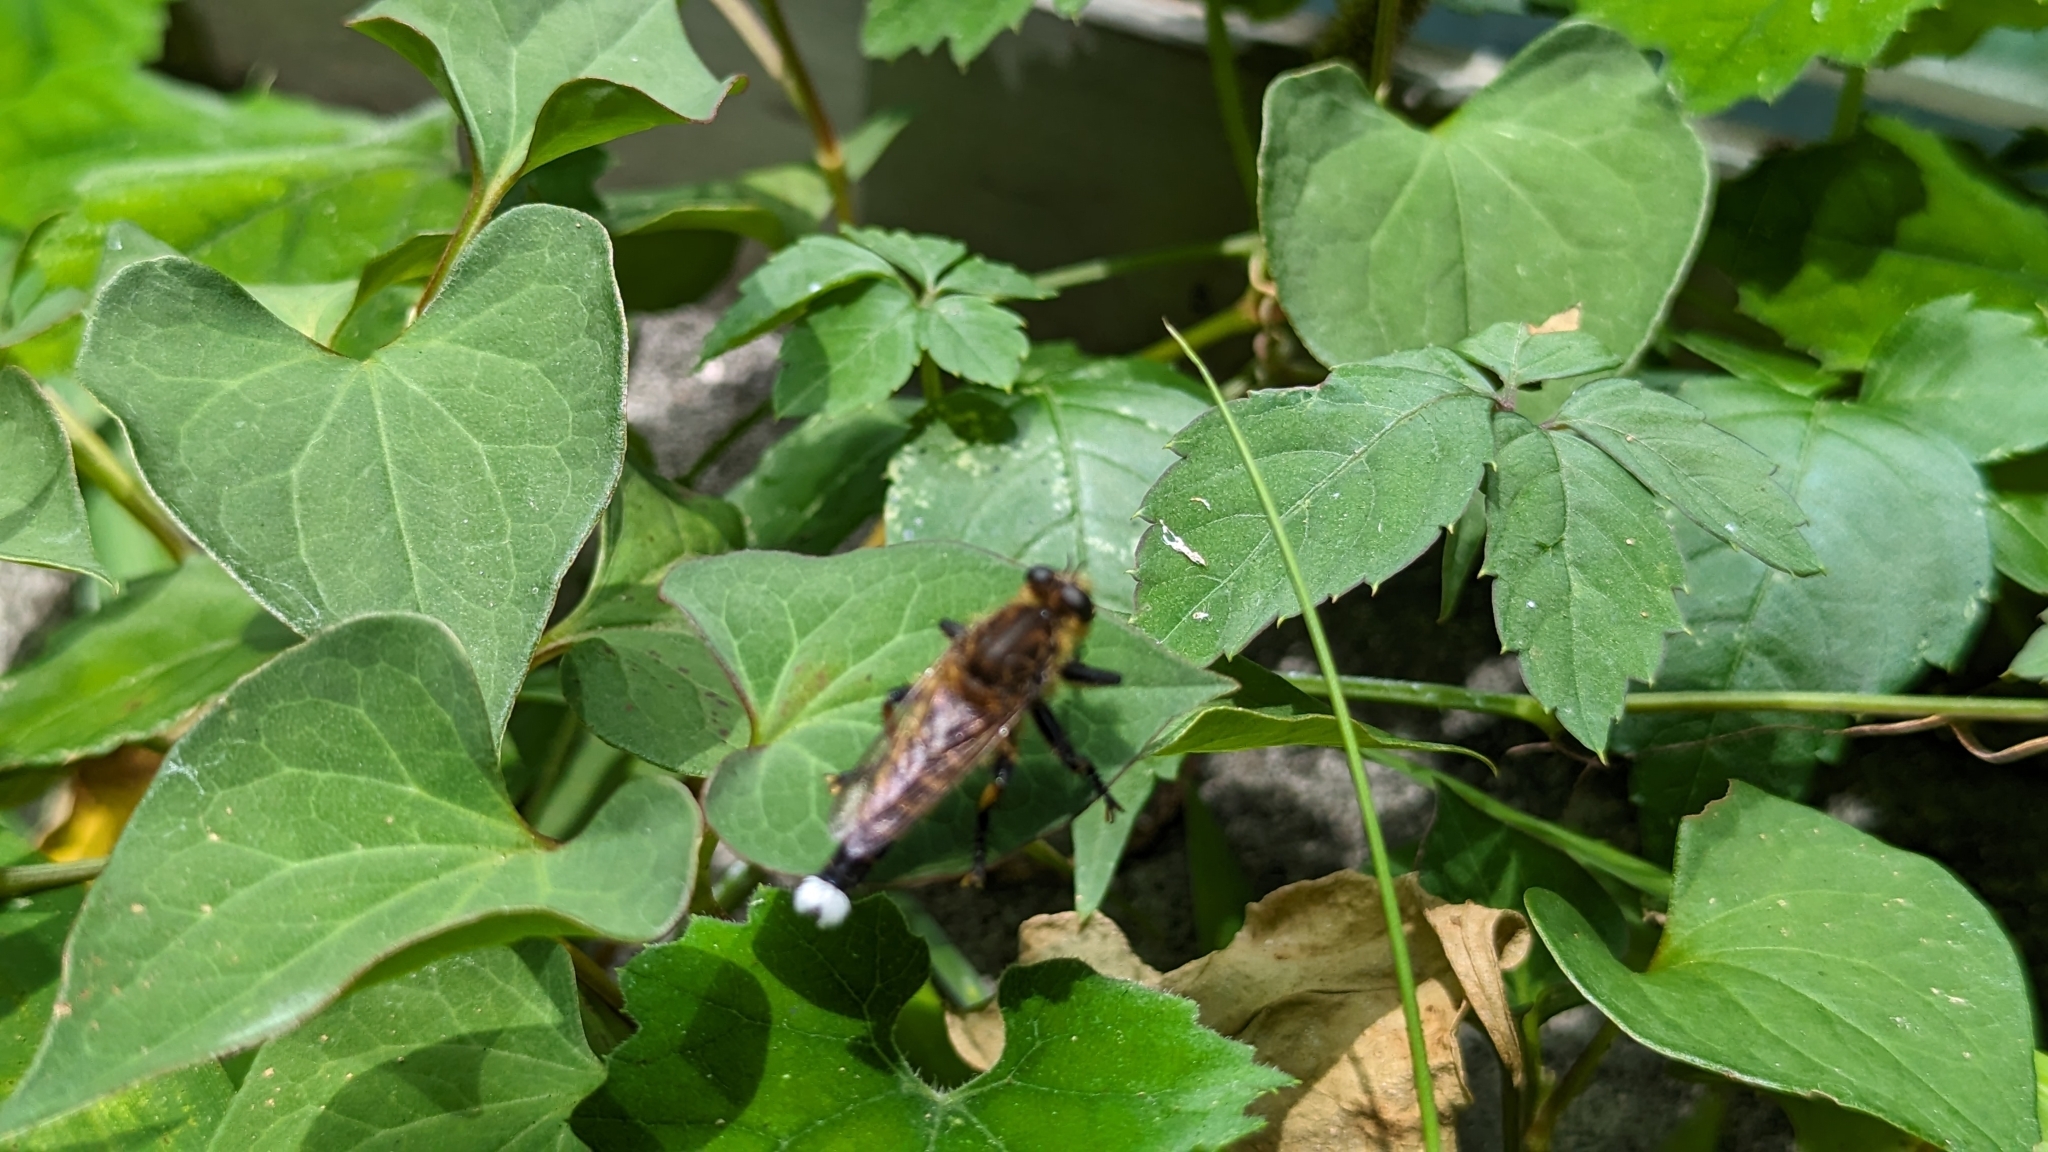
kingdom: Animalia
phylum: Arthropoda
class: Insecta
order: Diptera
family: Asilidae
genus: Promachus
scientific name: Promachus yesonicus
